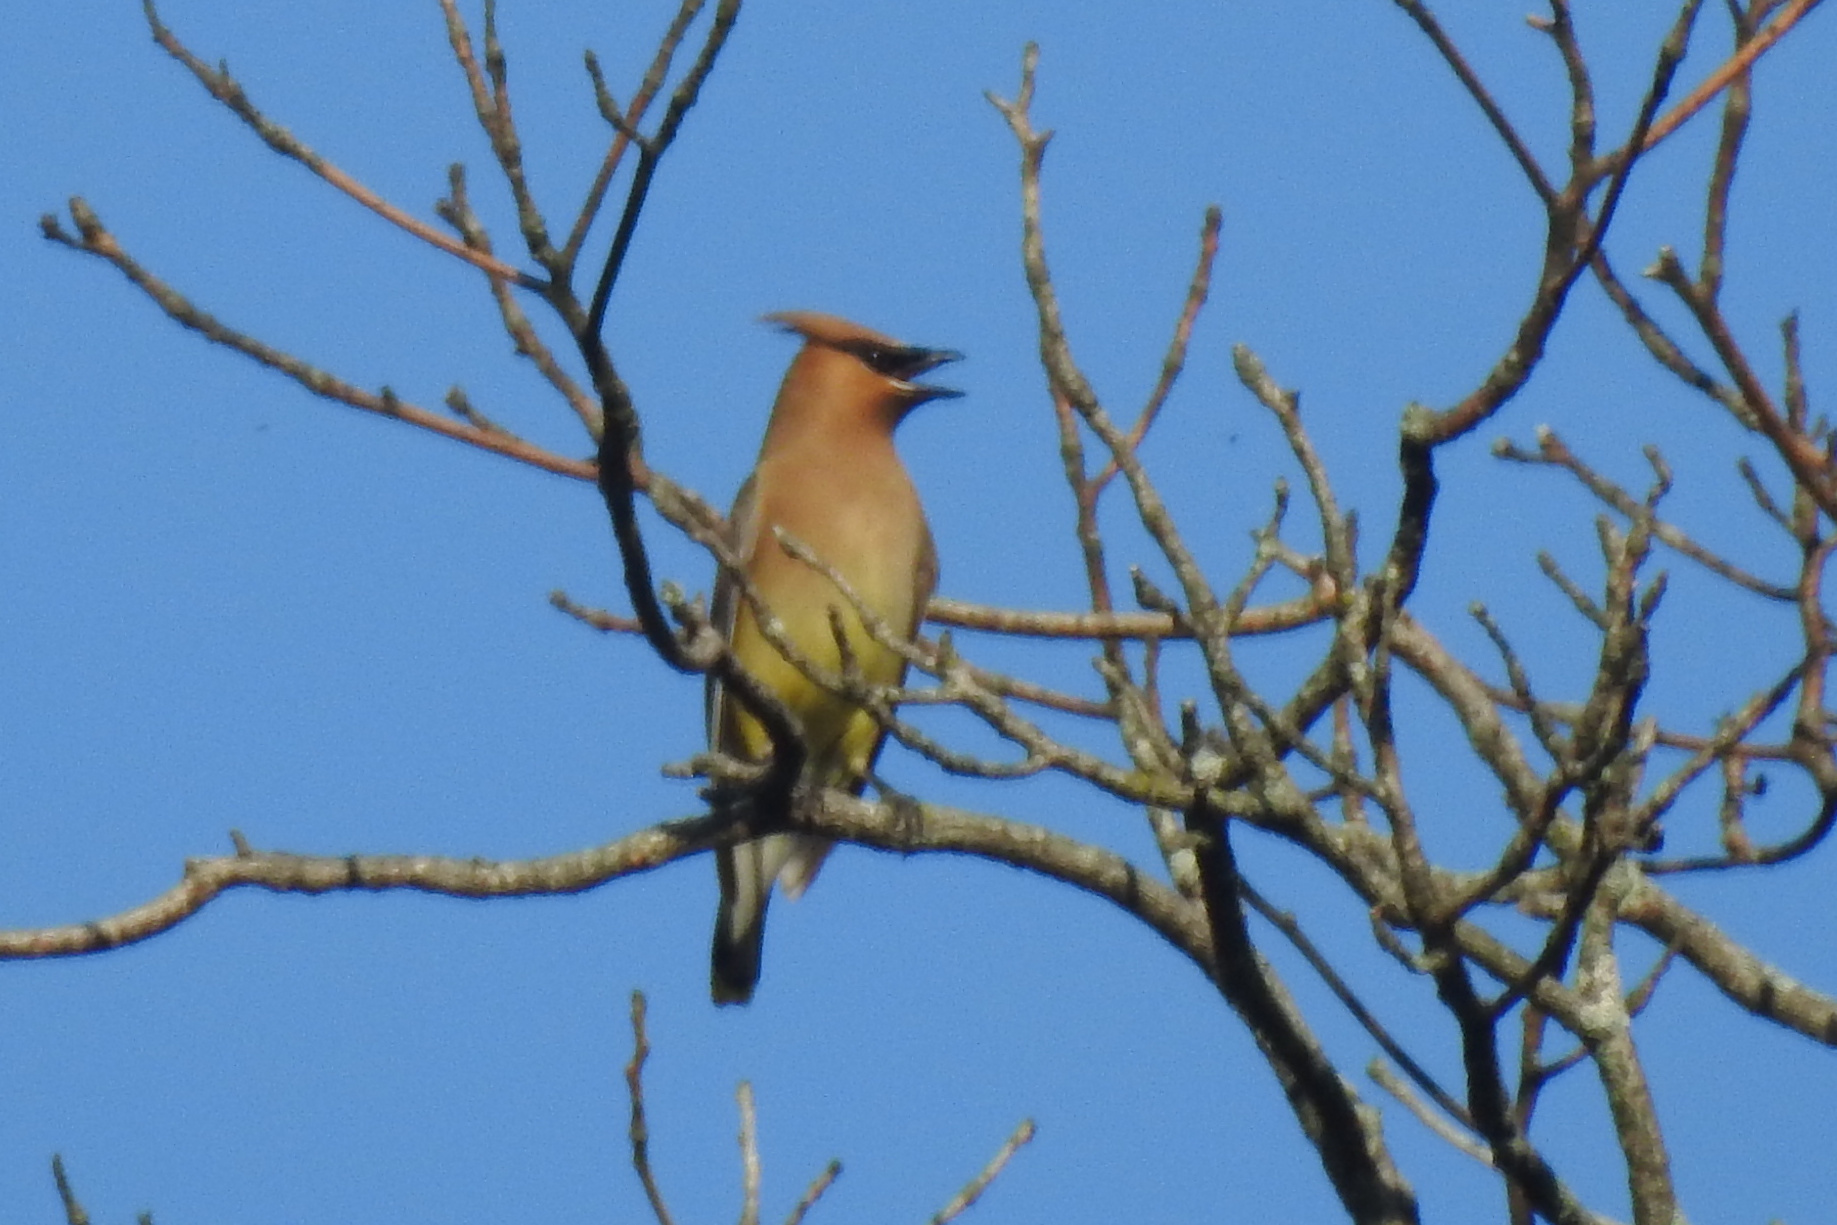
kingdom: Animalia
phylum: Chordata
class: Aves
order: Passeriformes
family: Bombycillidae
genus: Bombycilla
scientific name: Bombycilla cedrorum
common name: Cedar waxwing
